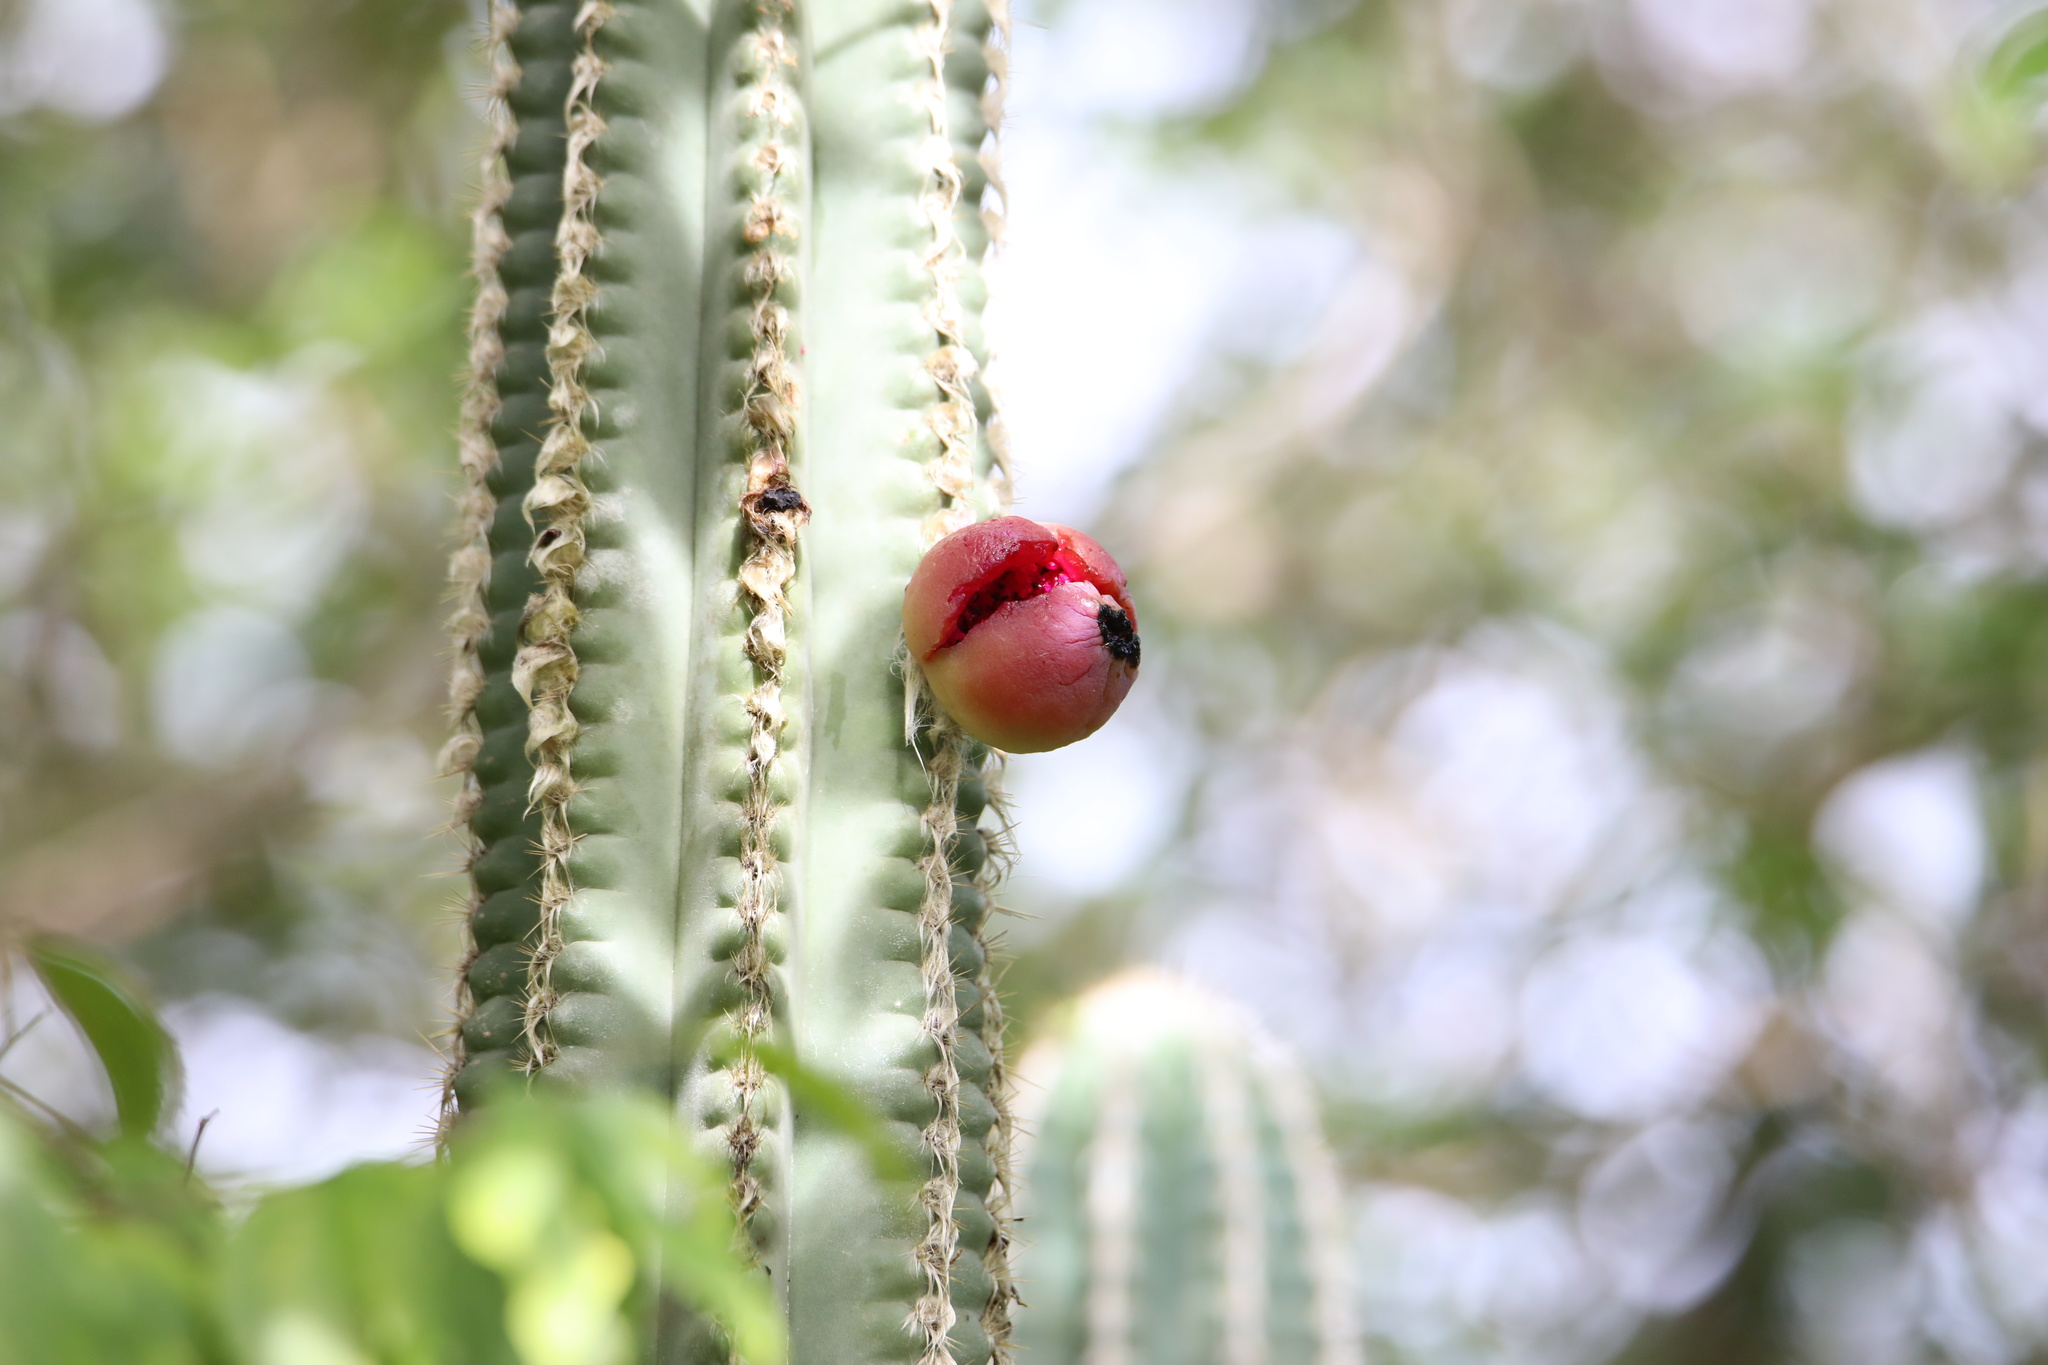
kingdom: Plantae
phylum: Tracheophyta
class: Magnoliopsida
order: Caryophyllales
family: Cactaceae
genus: Pilosocereus
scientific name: Pilosocereus polygonus
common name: Key tree cactus
